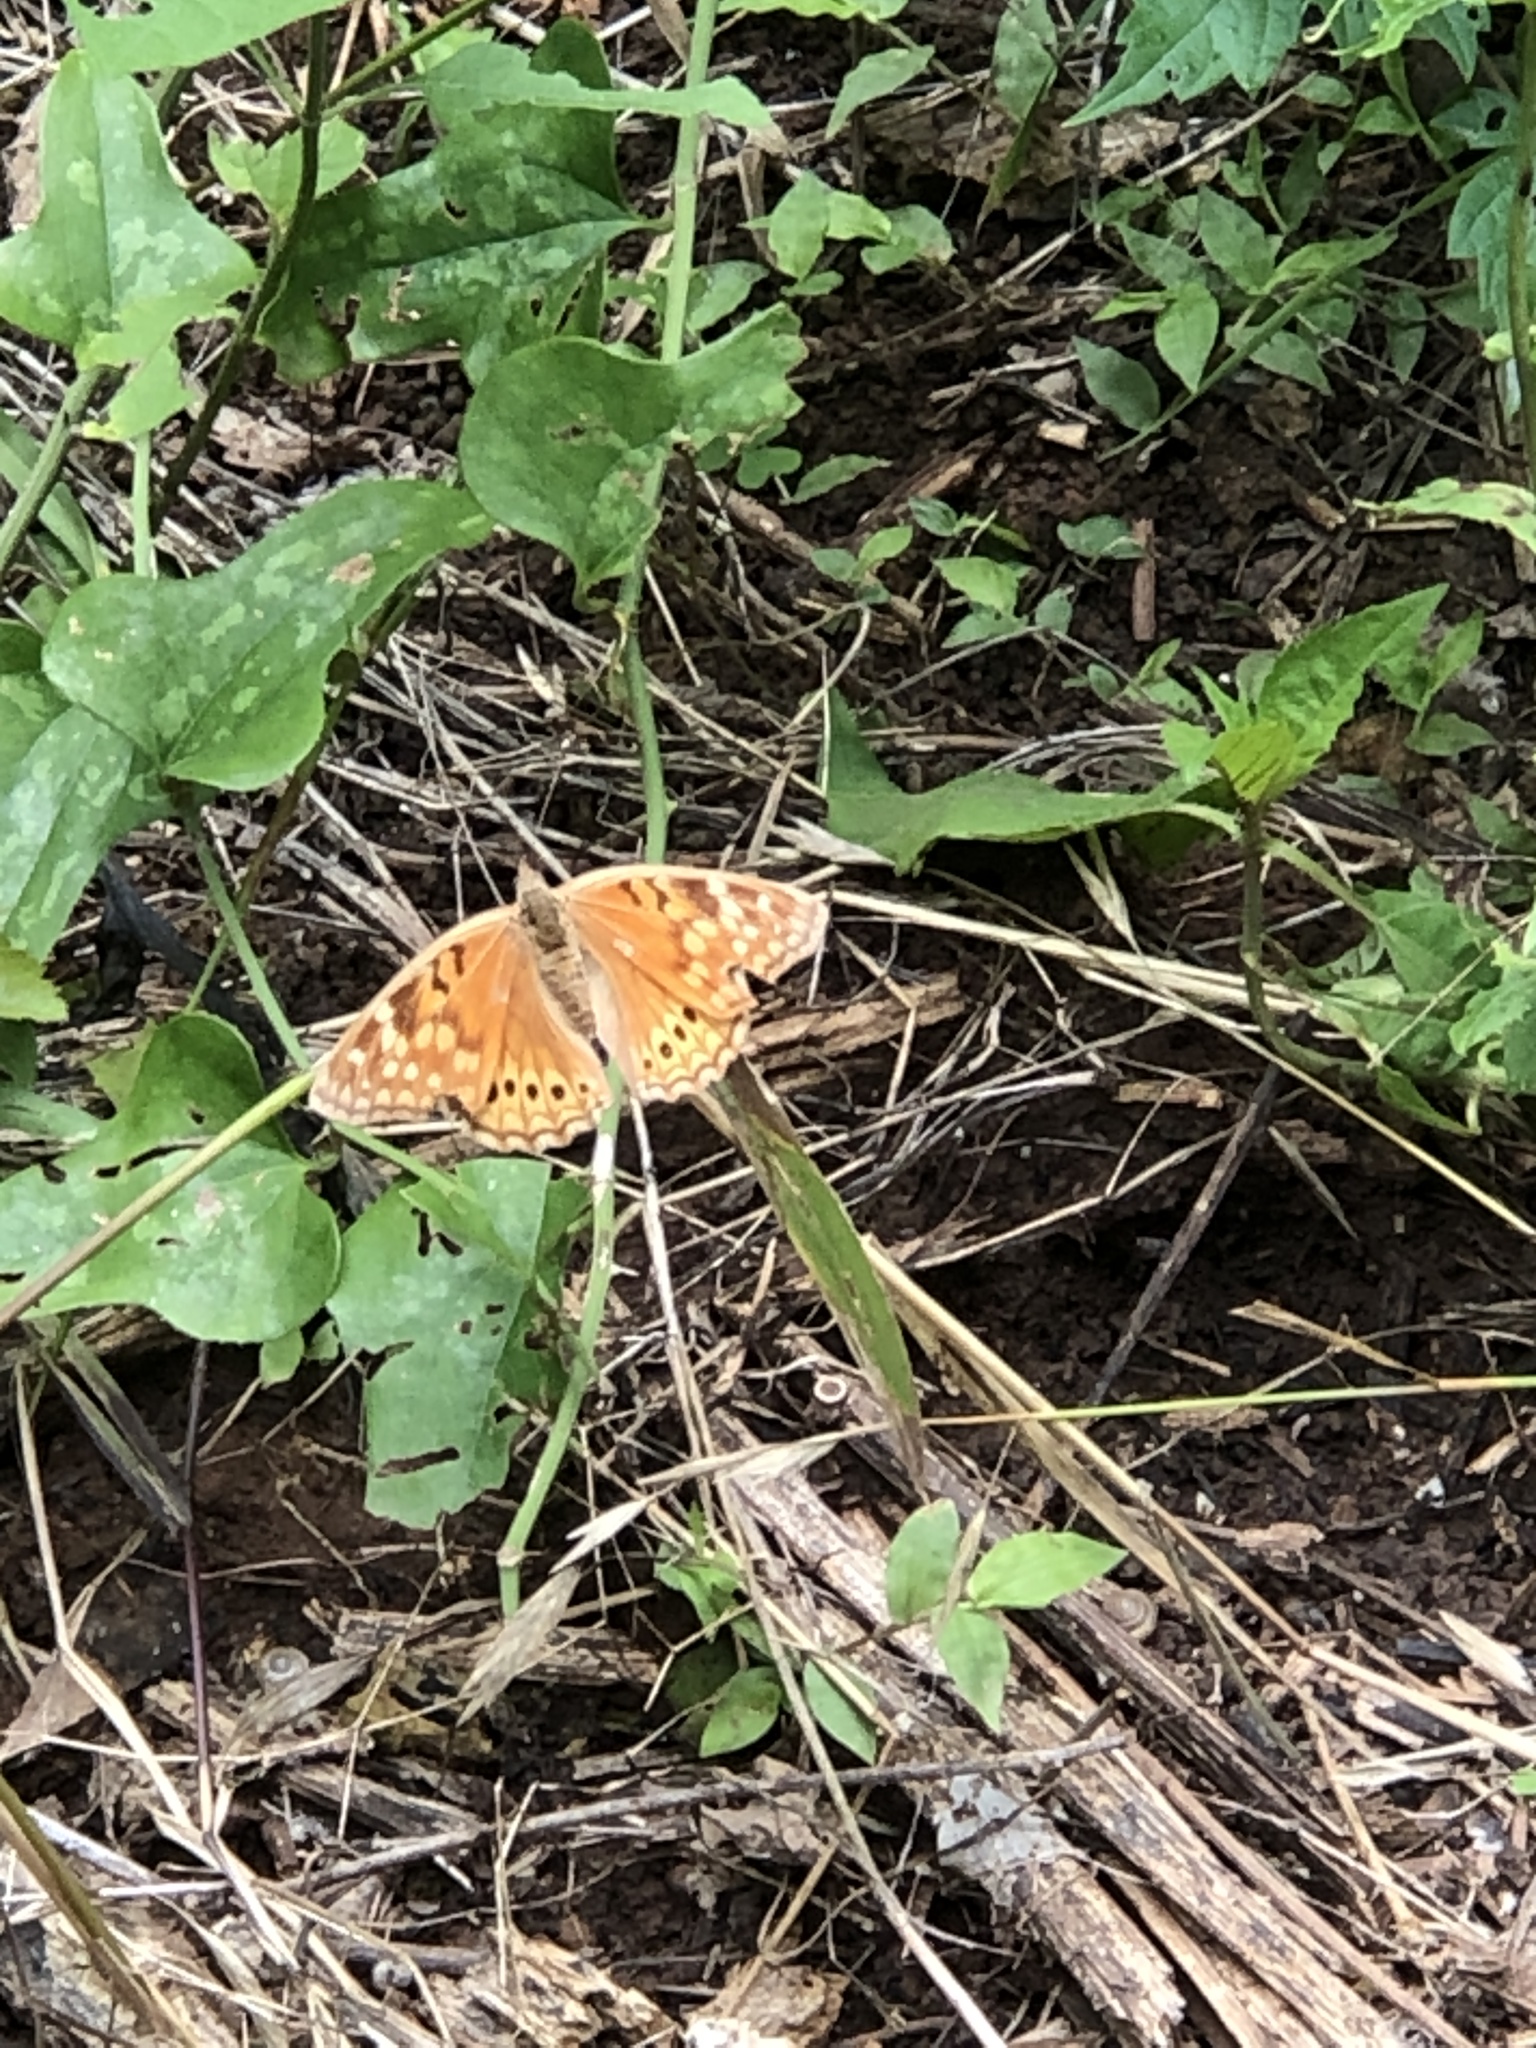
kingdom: Animalia
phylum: Arthropoda
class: Insecta
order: Lepidoptera
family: Nymphalidae
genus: Asterocampa
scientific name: Asterocampa clyton
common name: Tawny emperor
